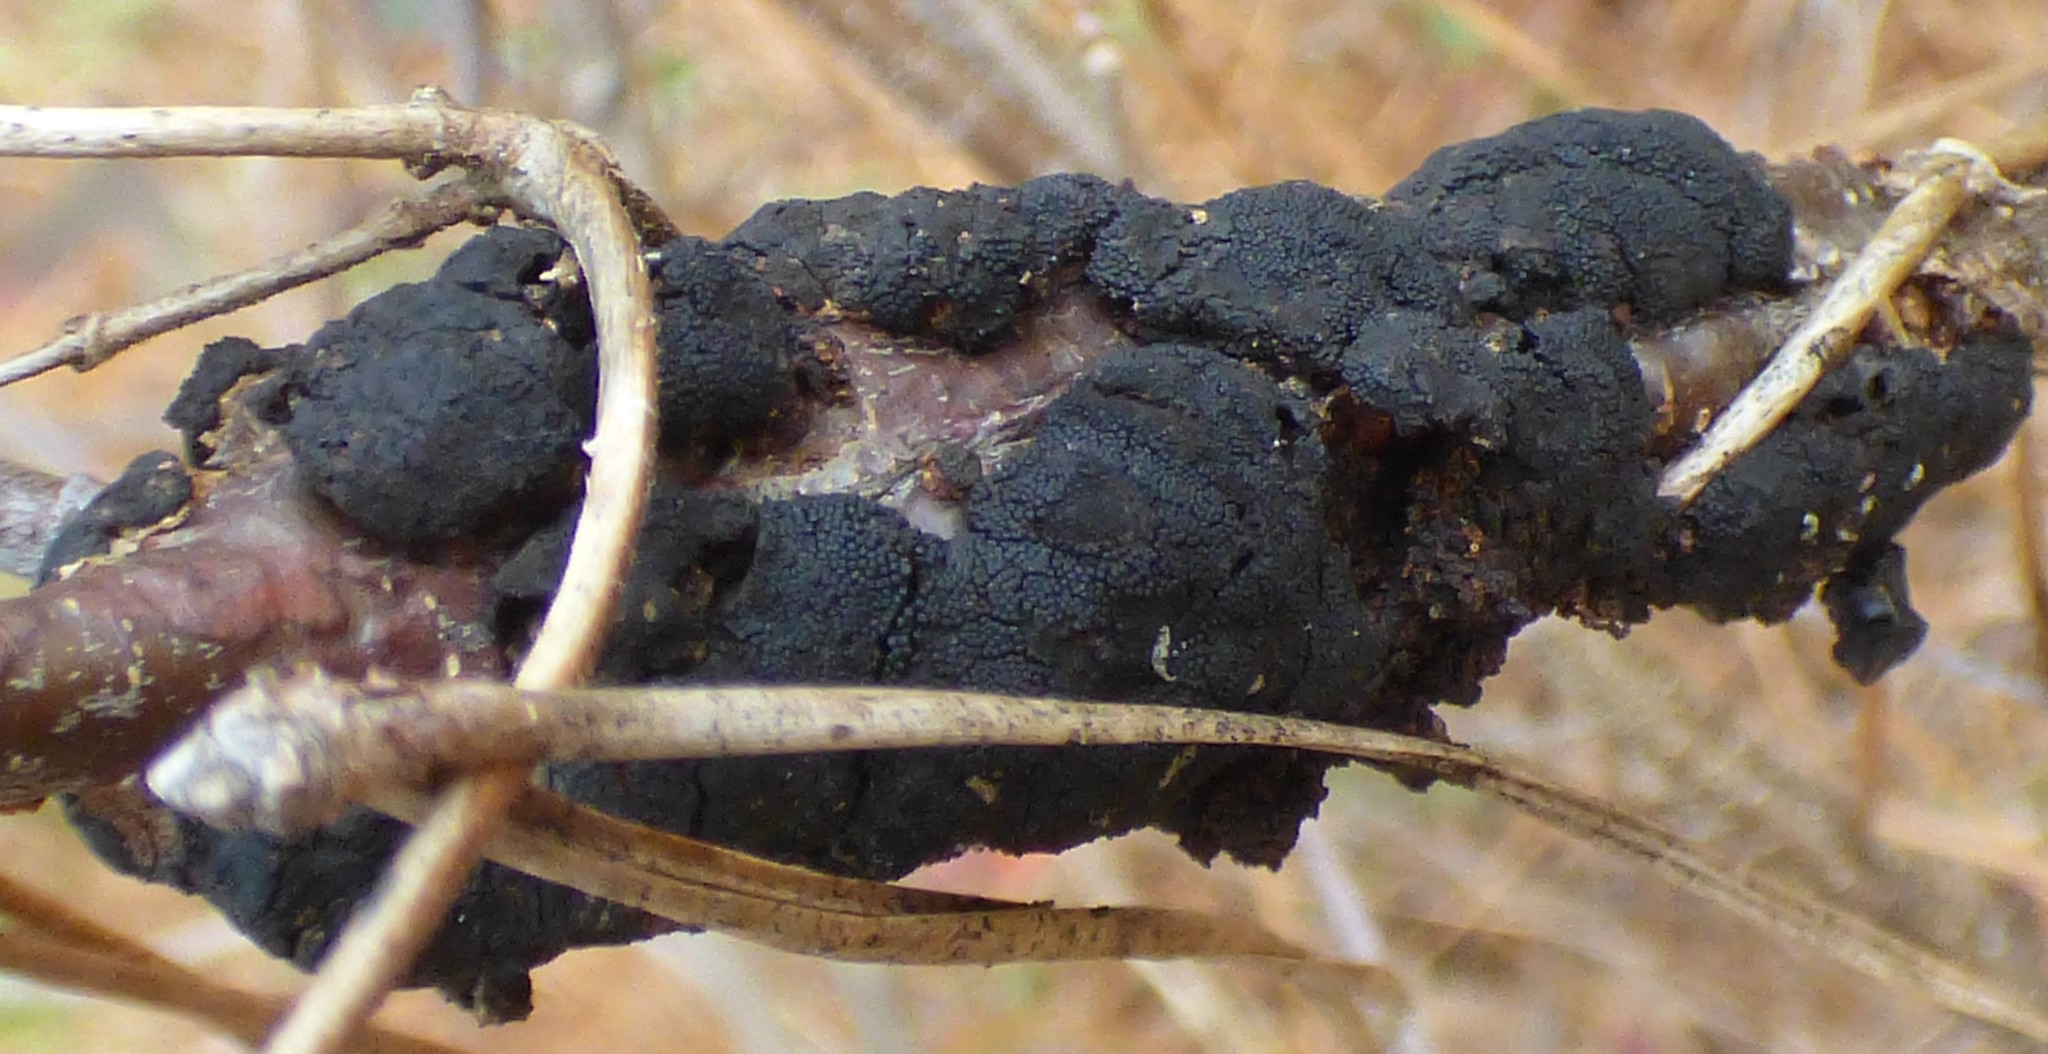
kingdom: Fungi
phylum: Ascomycota
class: Dothideomycetes
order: Venturiales
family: Venturiaceae
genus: Apiosporina
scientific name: Apiosporina morbosa
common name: Black knot
